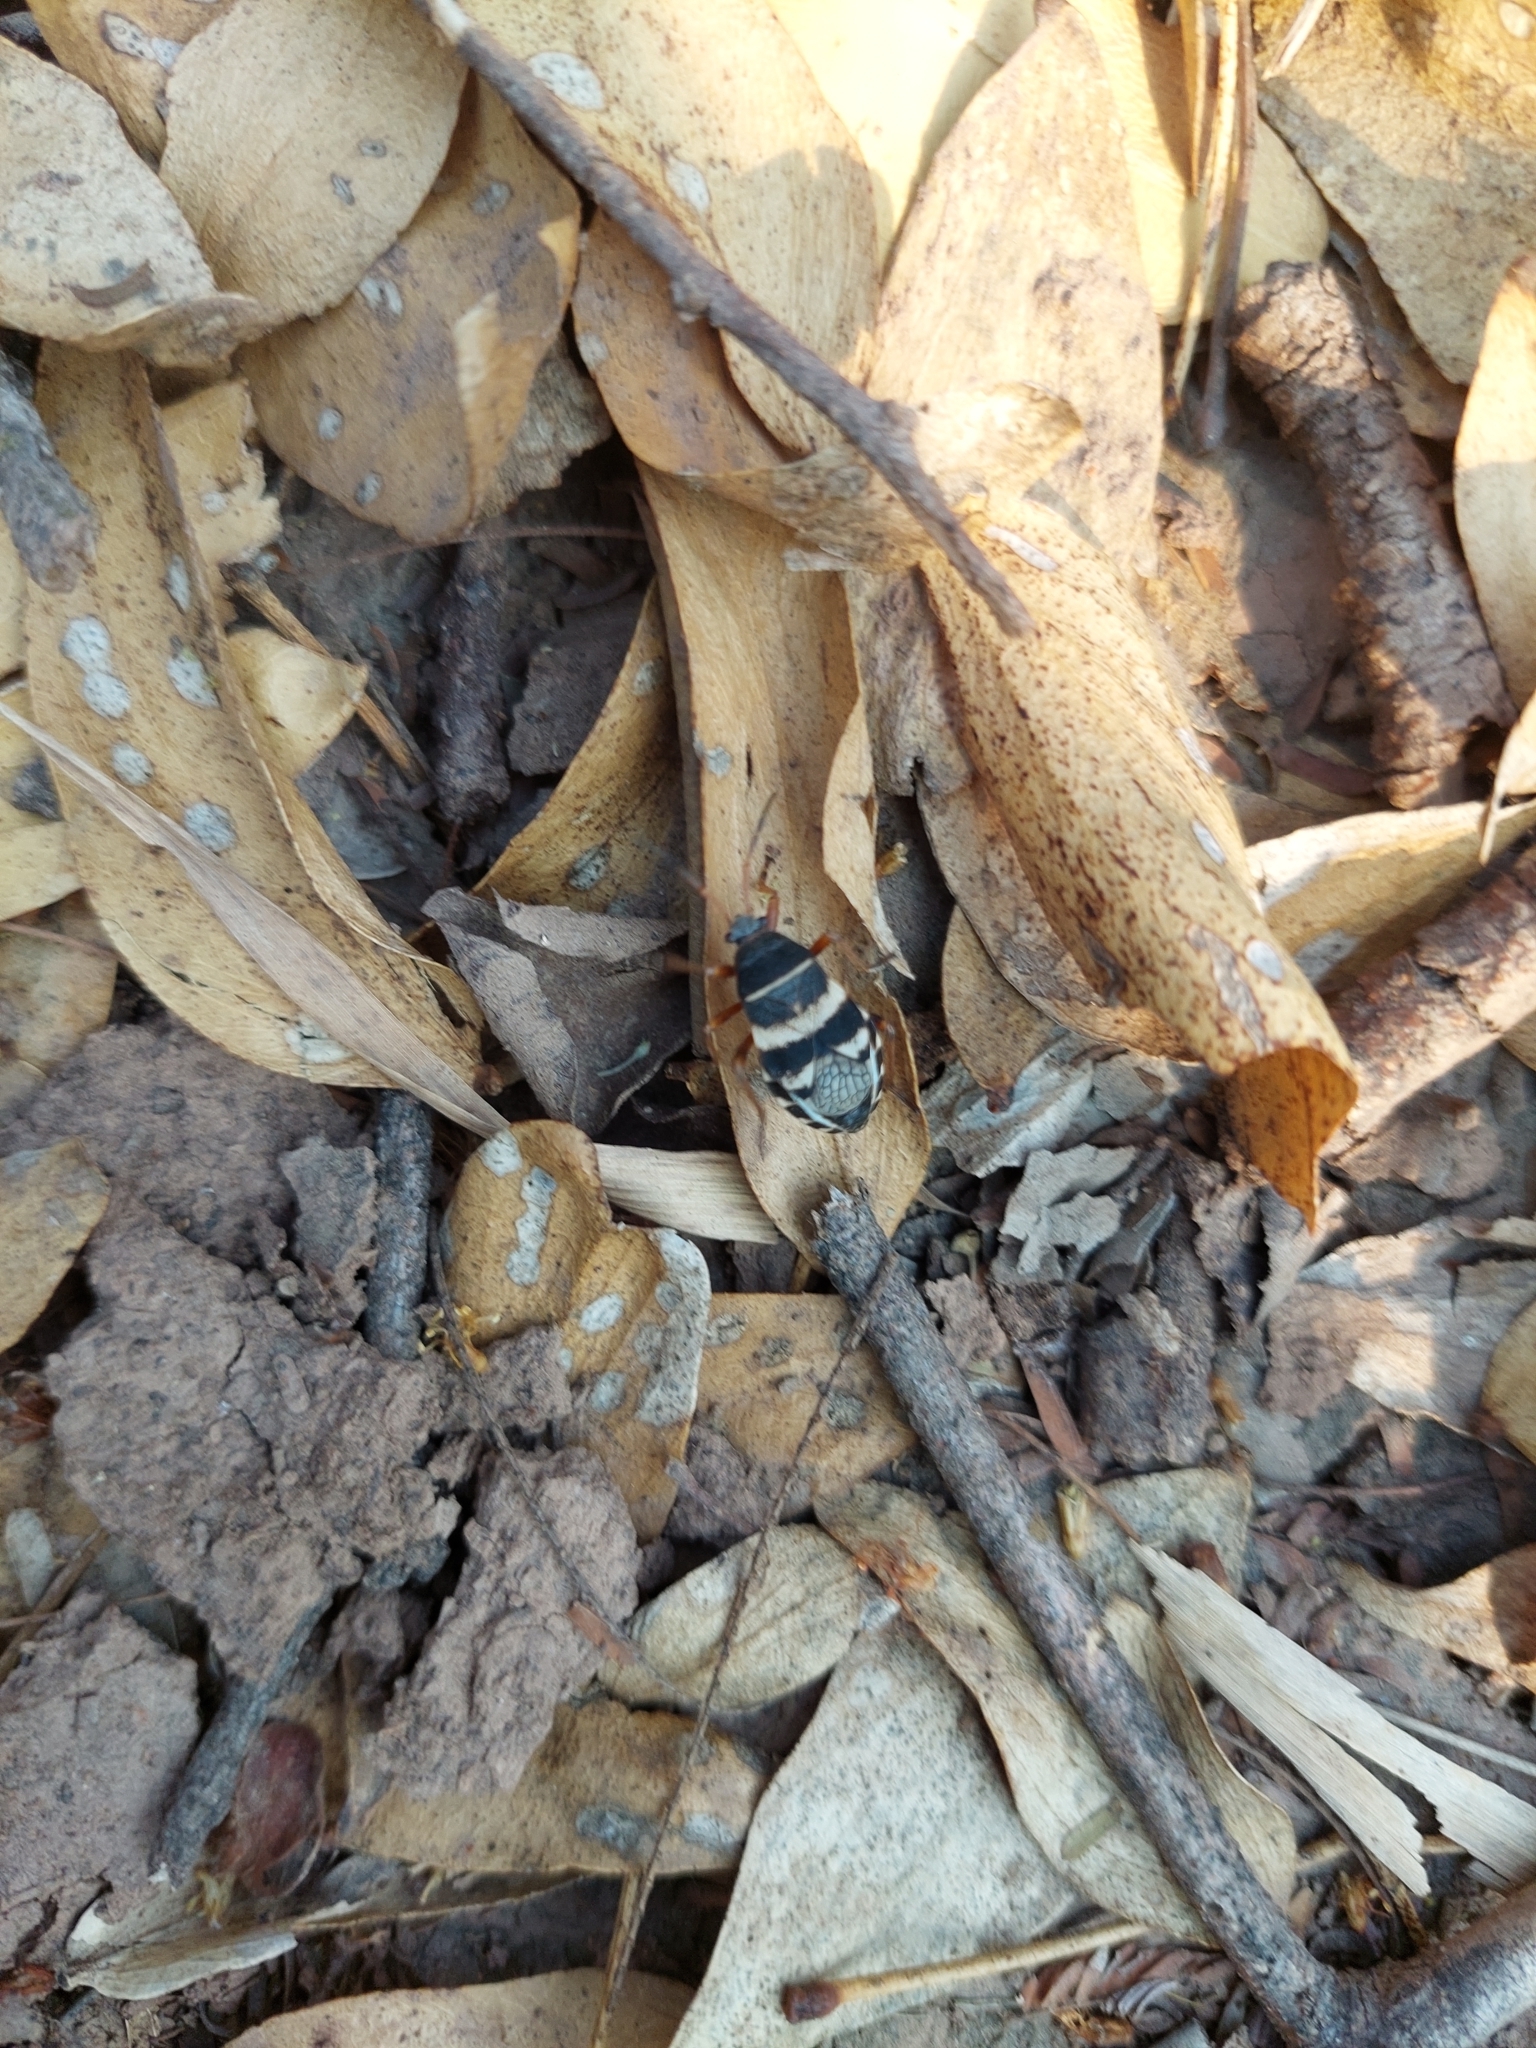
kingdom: Animalia
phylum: Arthropoda
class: Insecta
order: Hemiptera
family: Largidae
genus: Largus
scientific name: Largus priscillae
